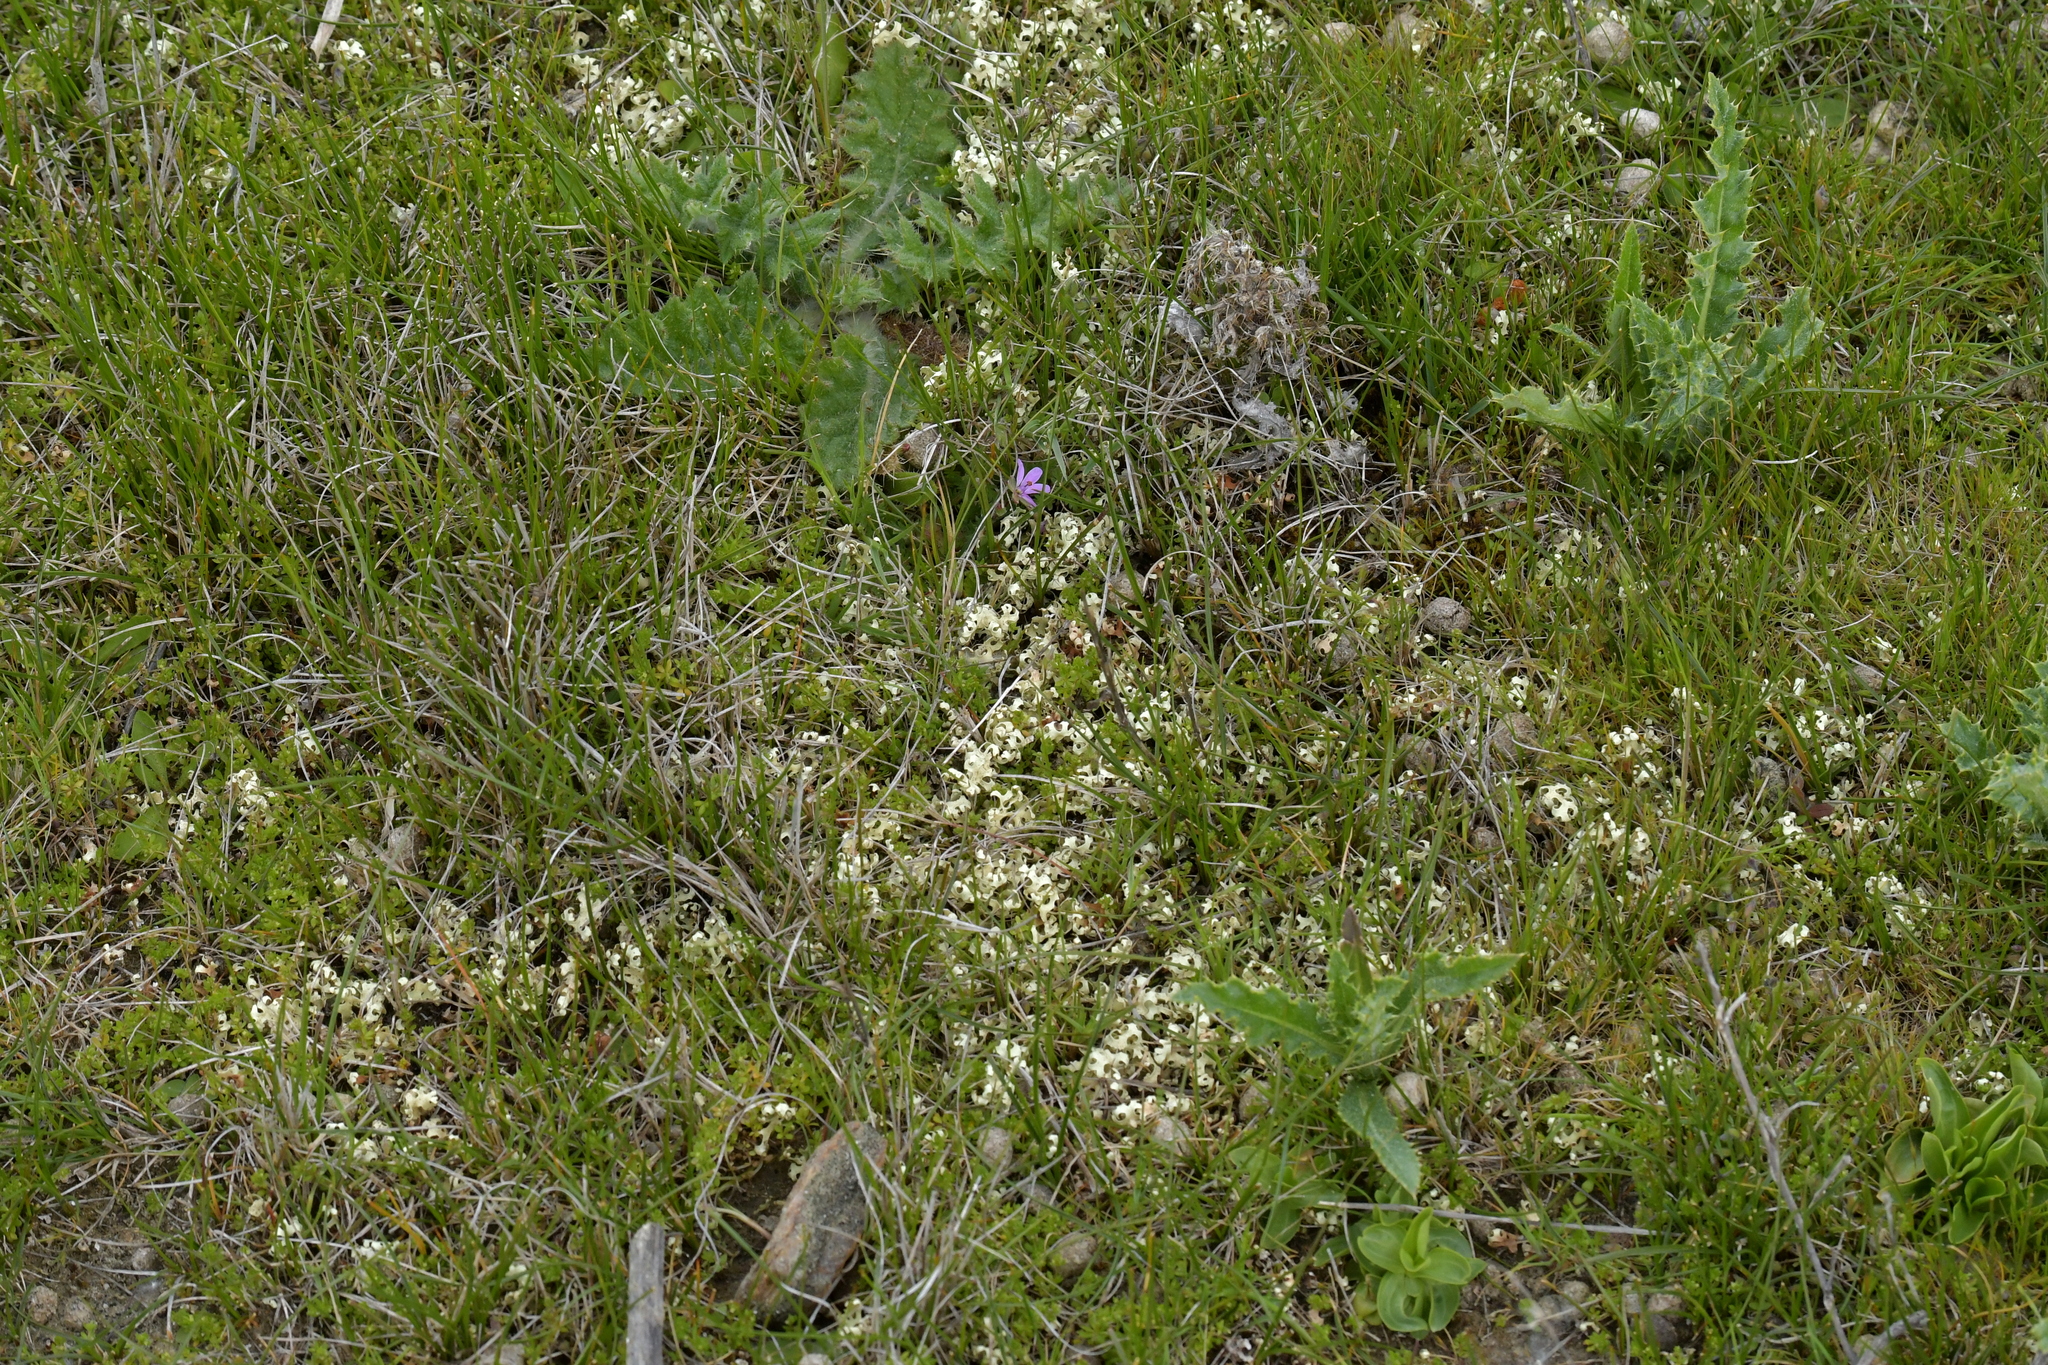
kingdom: Fungi
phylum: Ascomycota
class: Lecanoromycetes
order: Lecanorales
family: Parmeliaceae
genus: Xanthoparmelia
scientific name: Xanthoparmelia semiviridis
